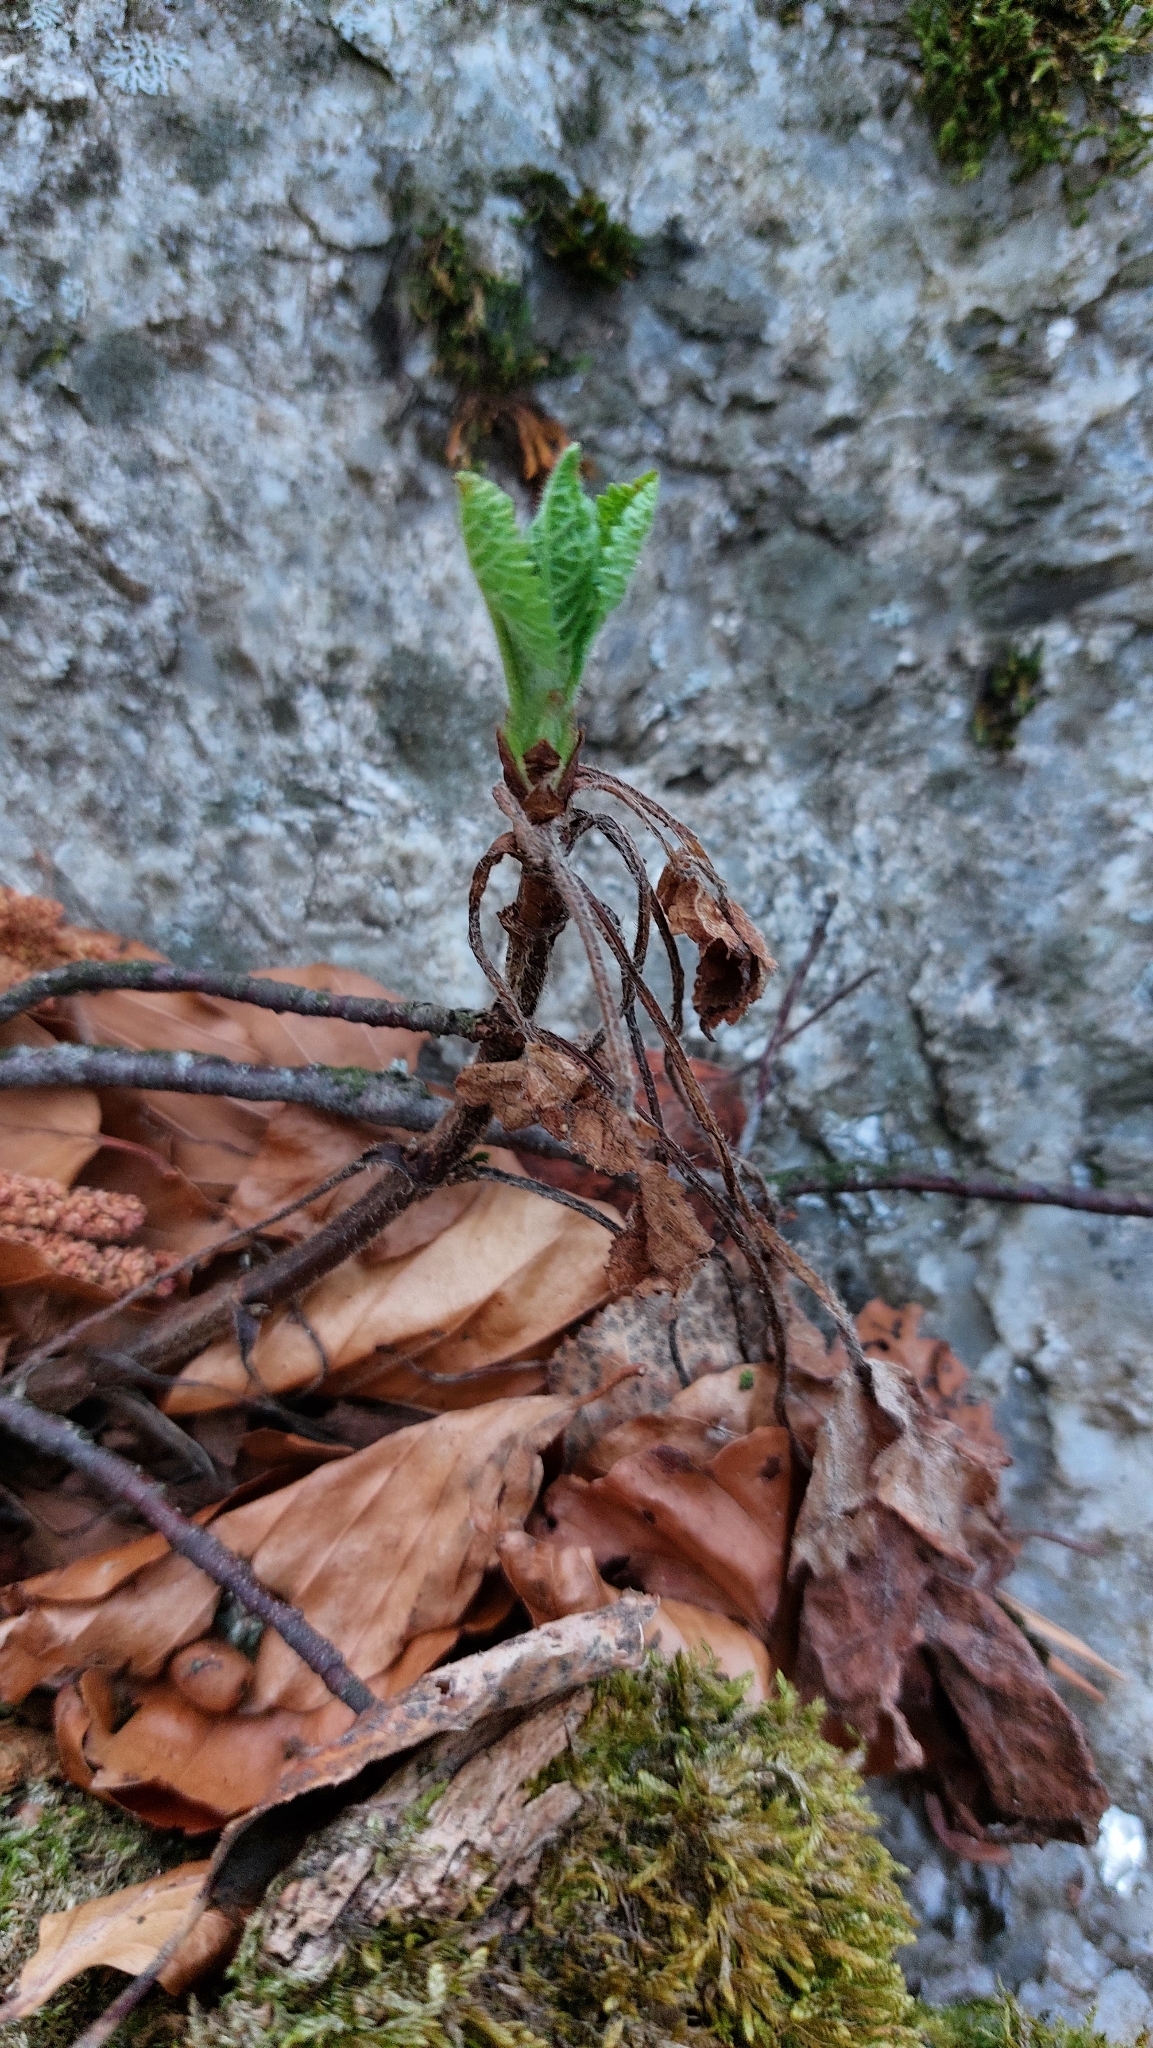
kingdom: Plantae
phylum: Tracheophyta
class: Magnoliopsida
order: Lamiales
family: Lamiaceae
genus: Salvia
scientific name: Salvia glutinosa
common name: Sticky clary
